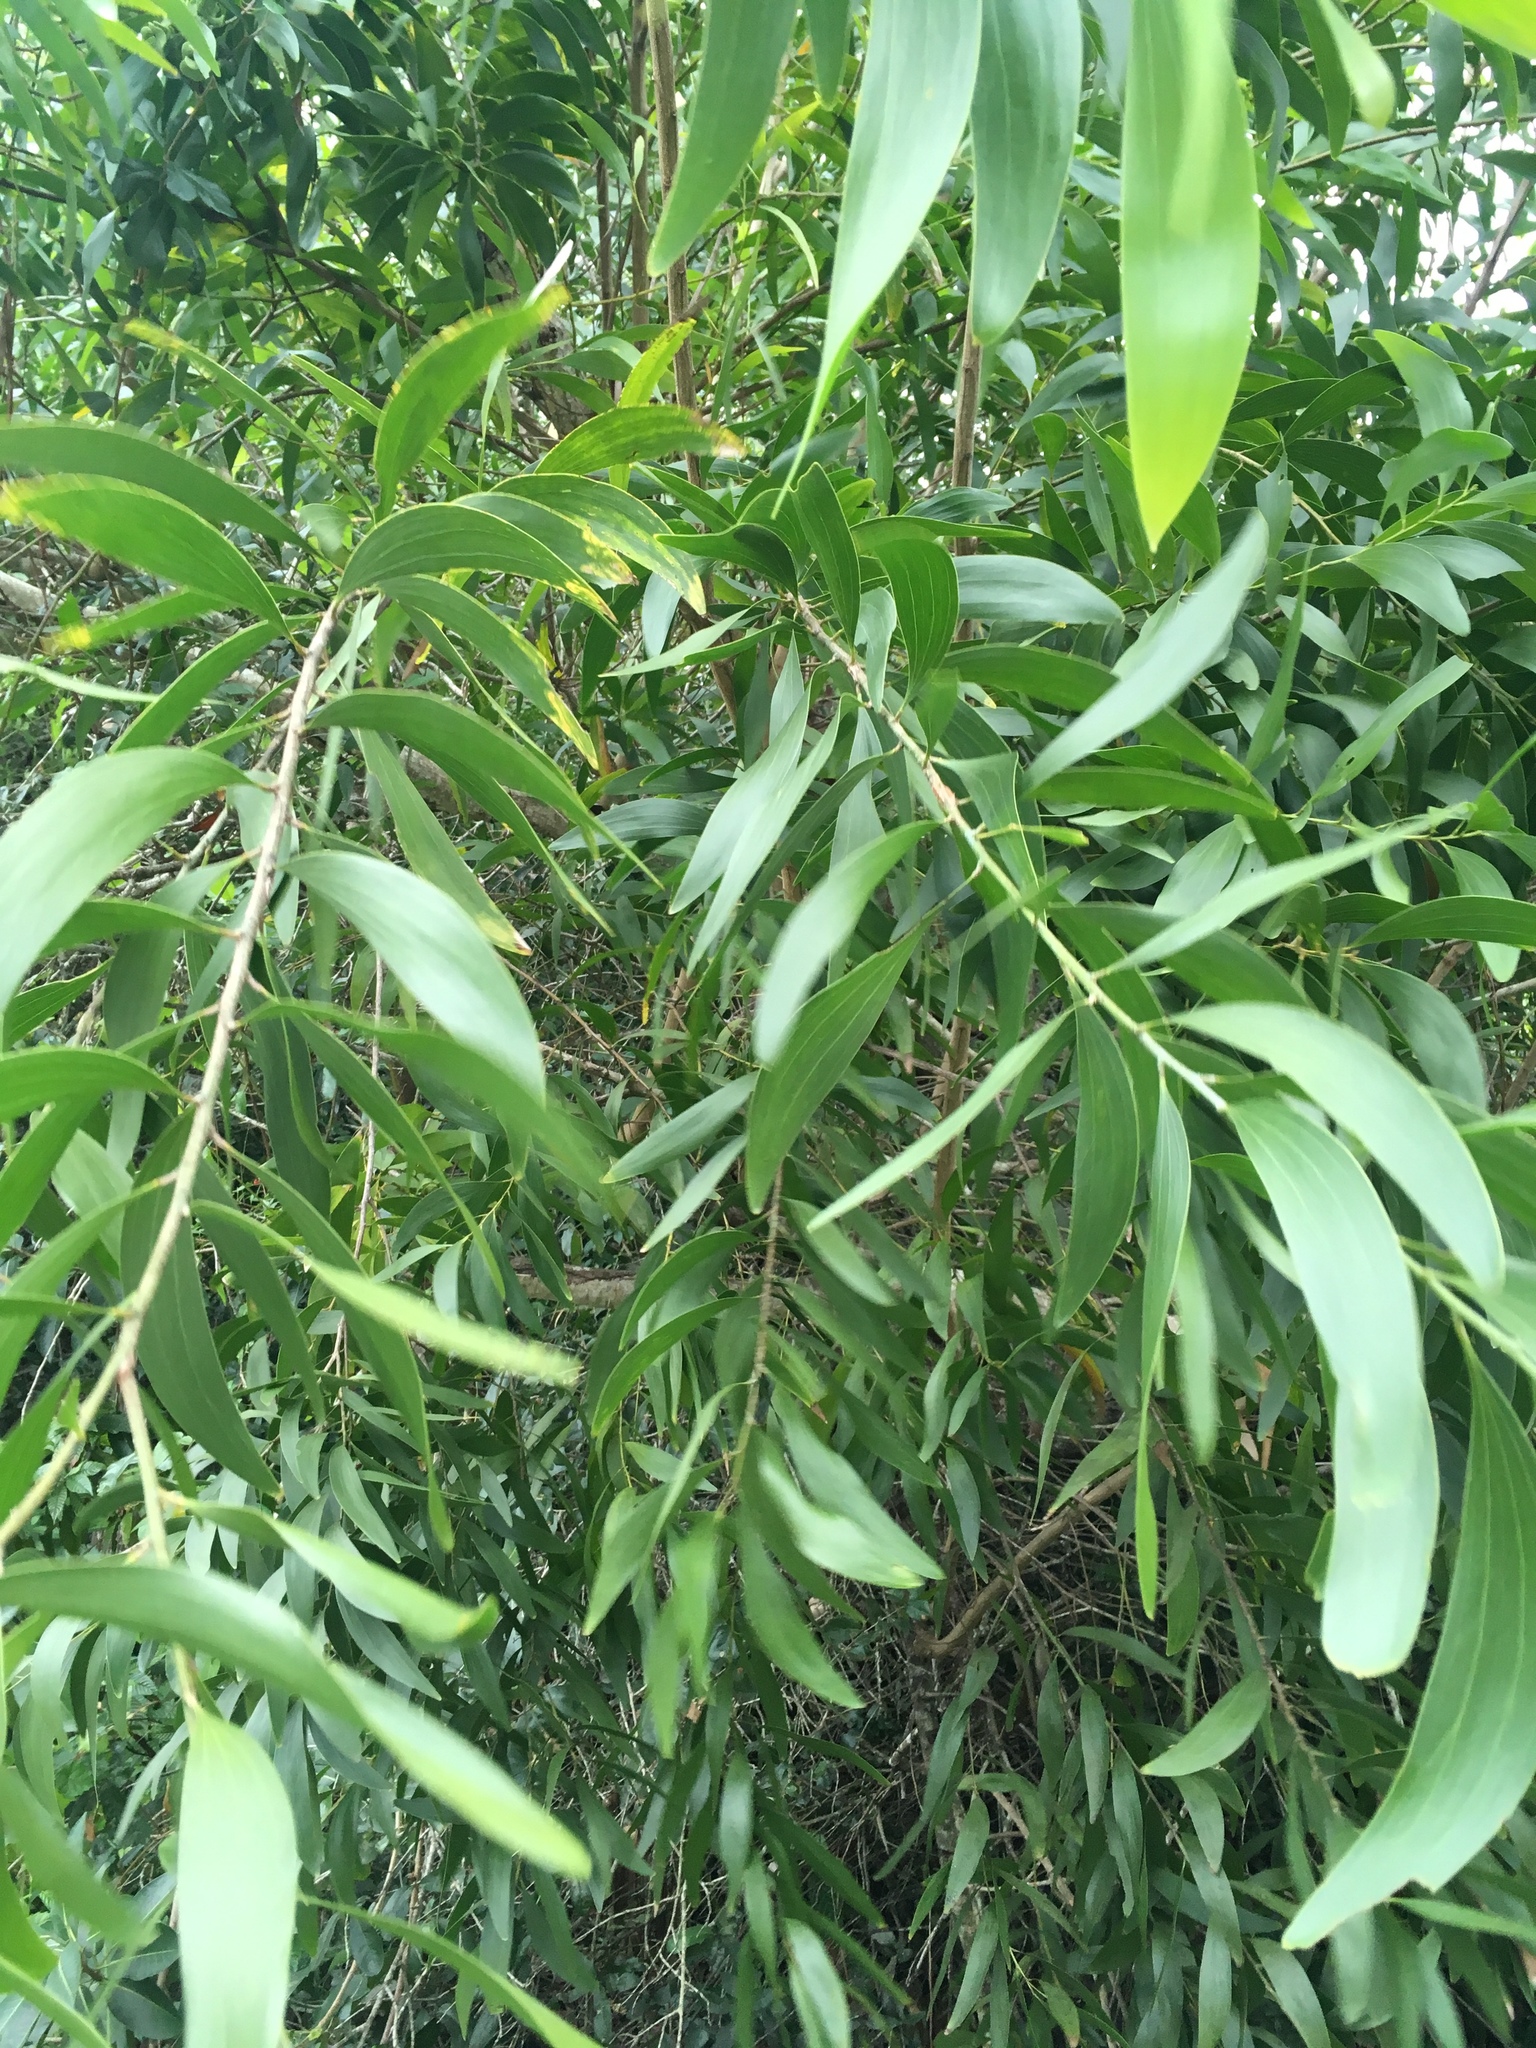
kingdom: Plantae
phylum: Tracheophyta
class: Magnoliopsida
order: Fabales
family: Fabaceae
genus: Acacia
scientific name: Acacia auriculiformis
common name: Earleaf acacia
